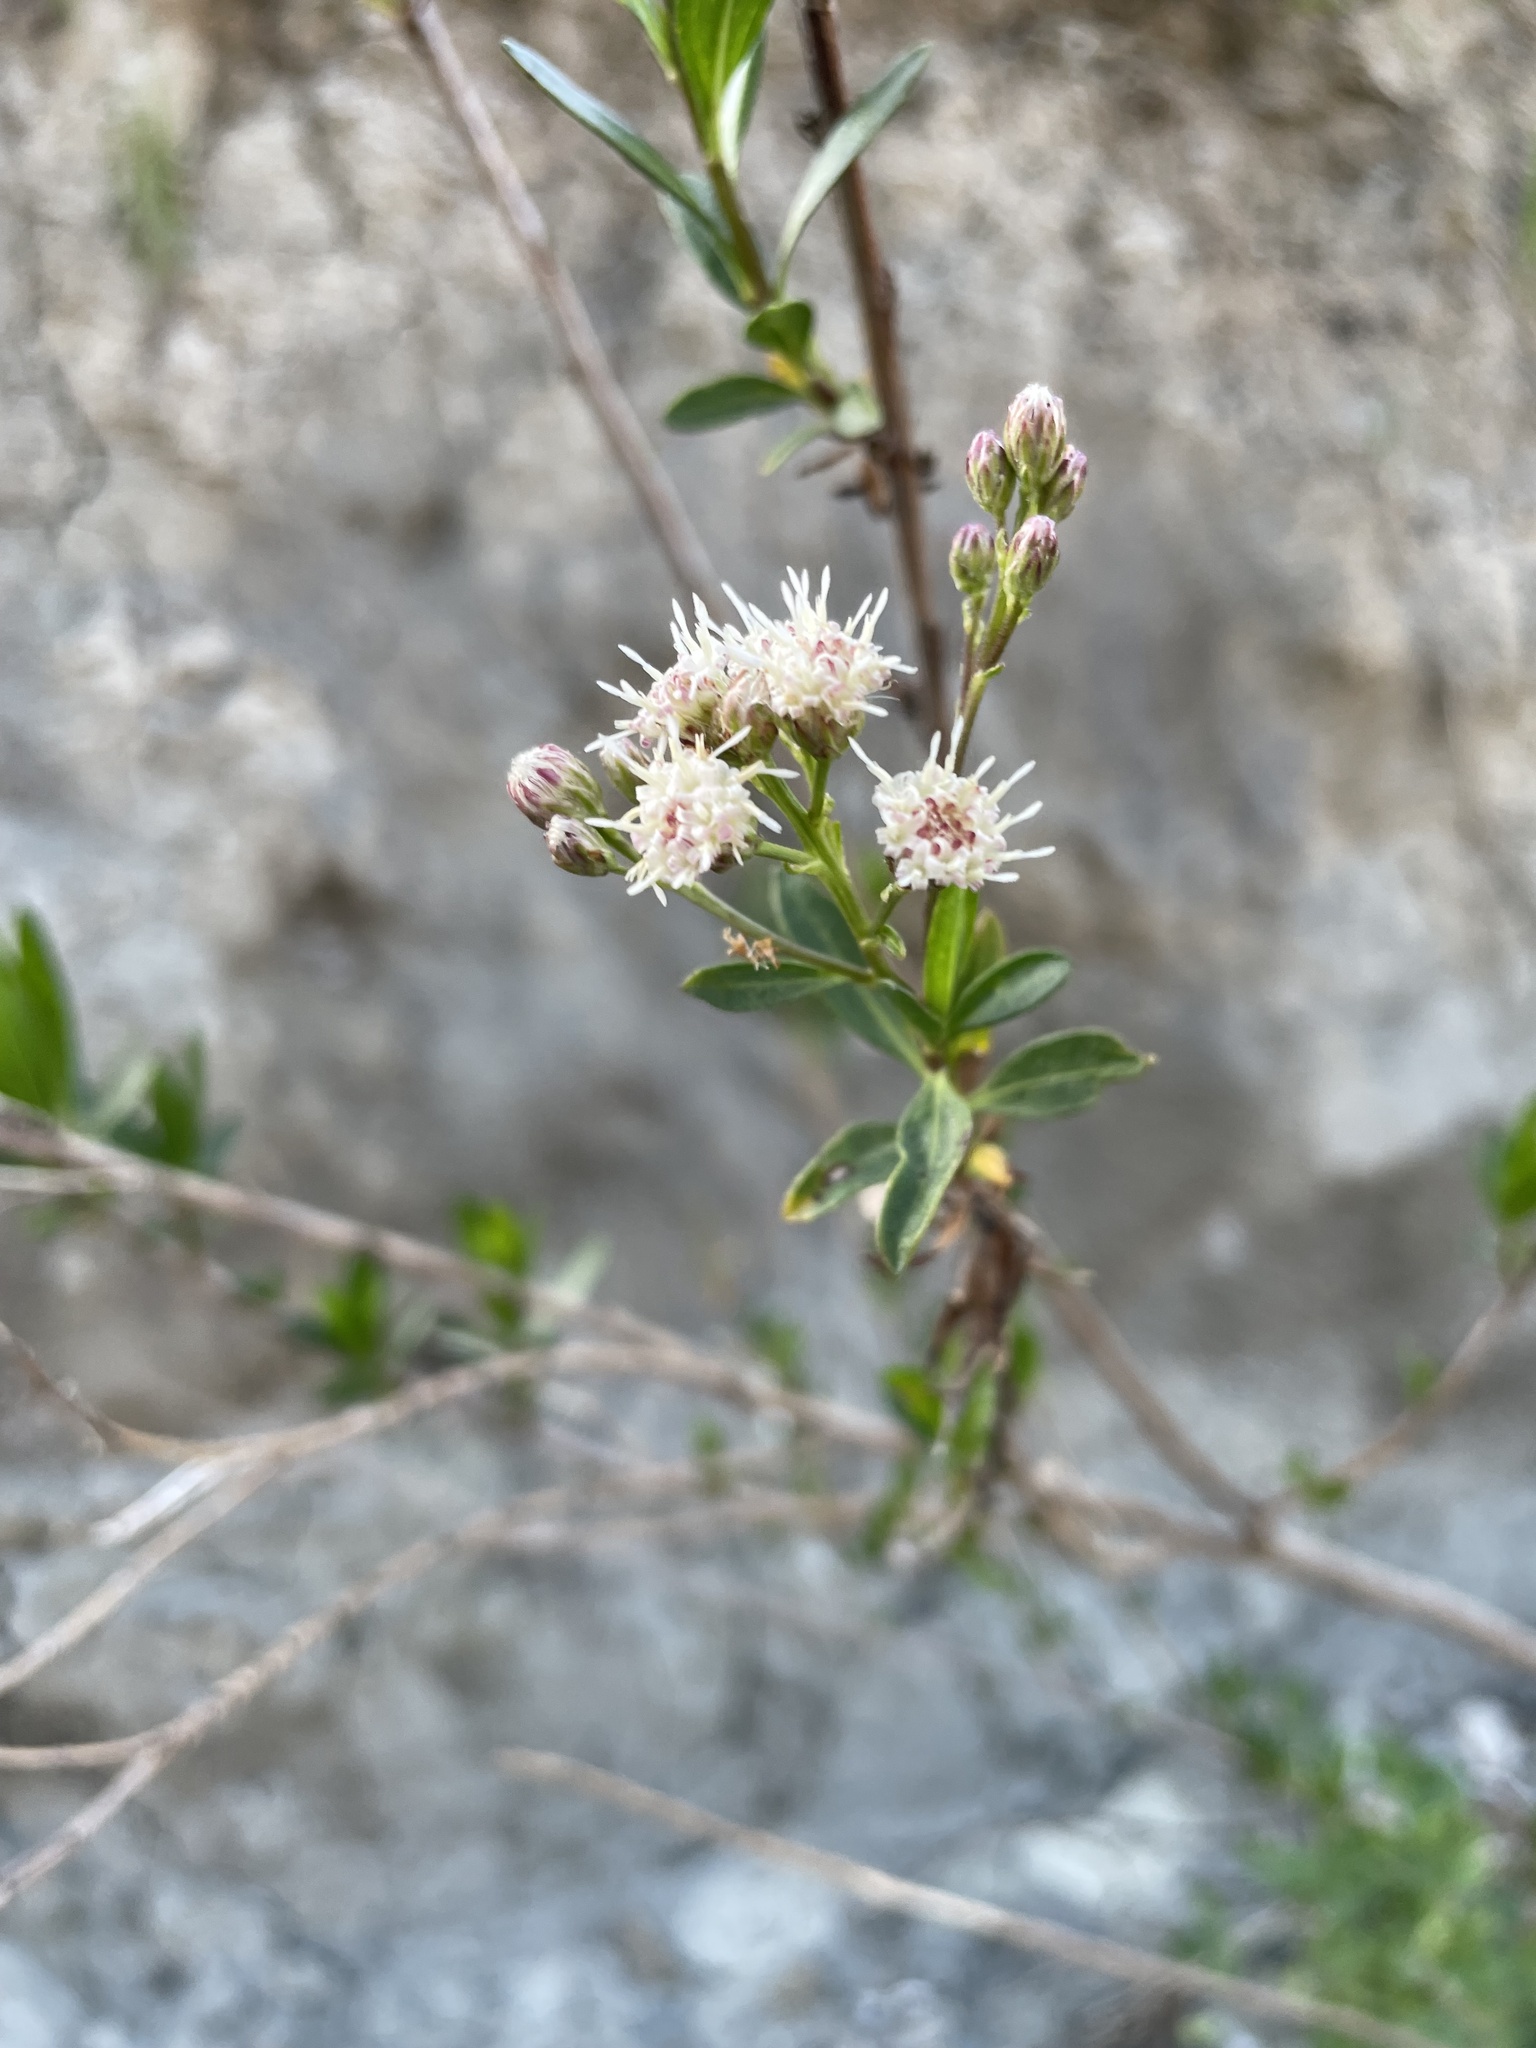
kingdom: Plantae
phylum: Tracheophyta
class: Magnoliopsida
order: Asterales
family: Asteraceae
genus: Baccharis
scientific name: Baccharis salicifolia
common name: Sticky baccharis
